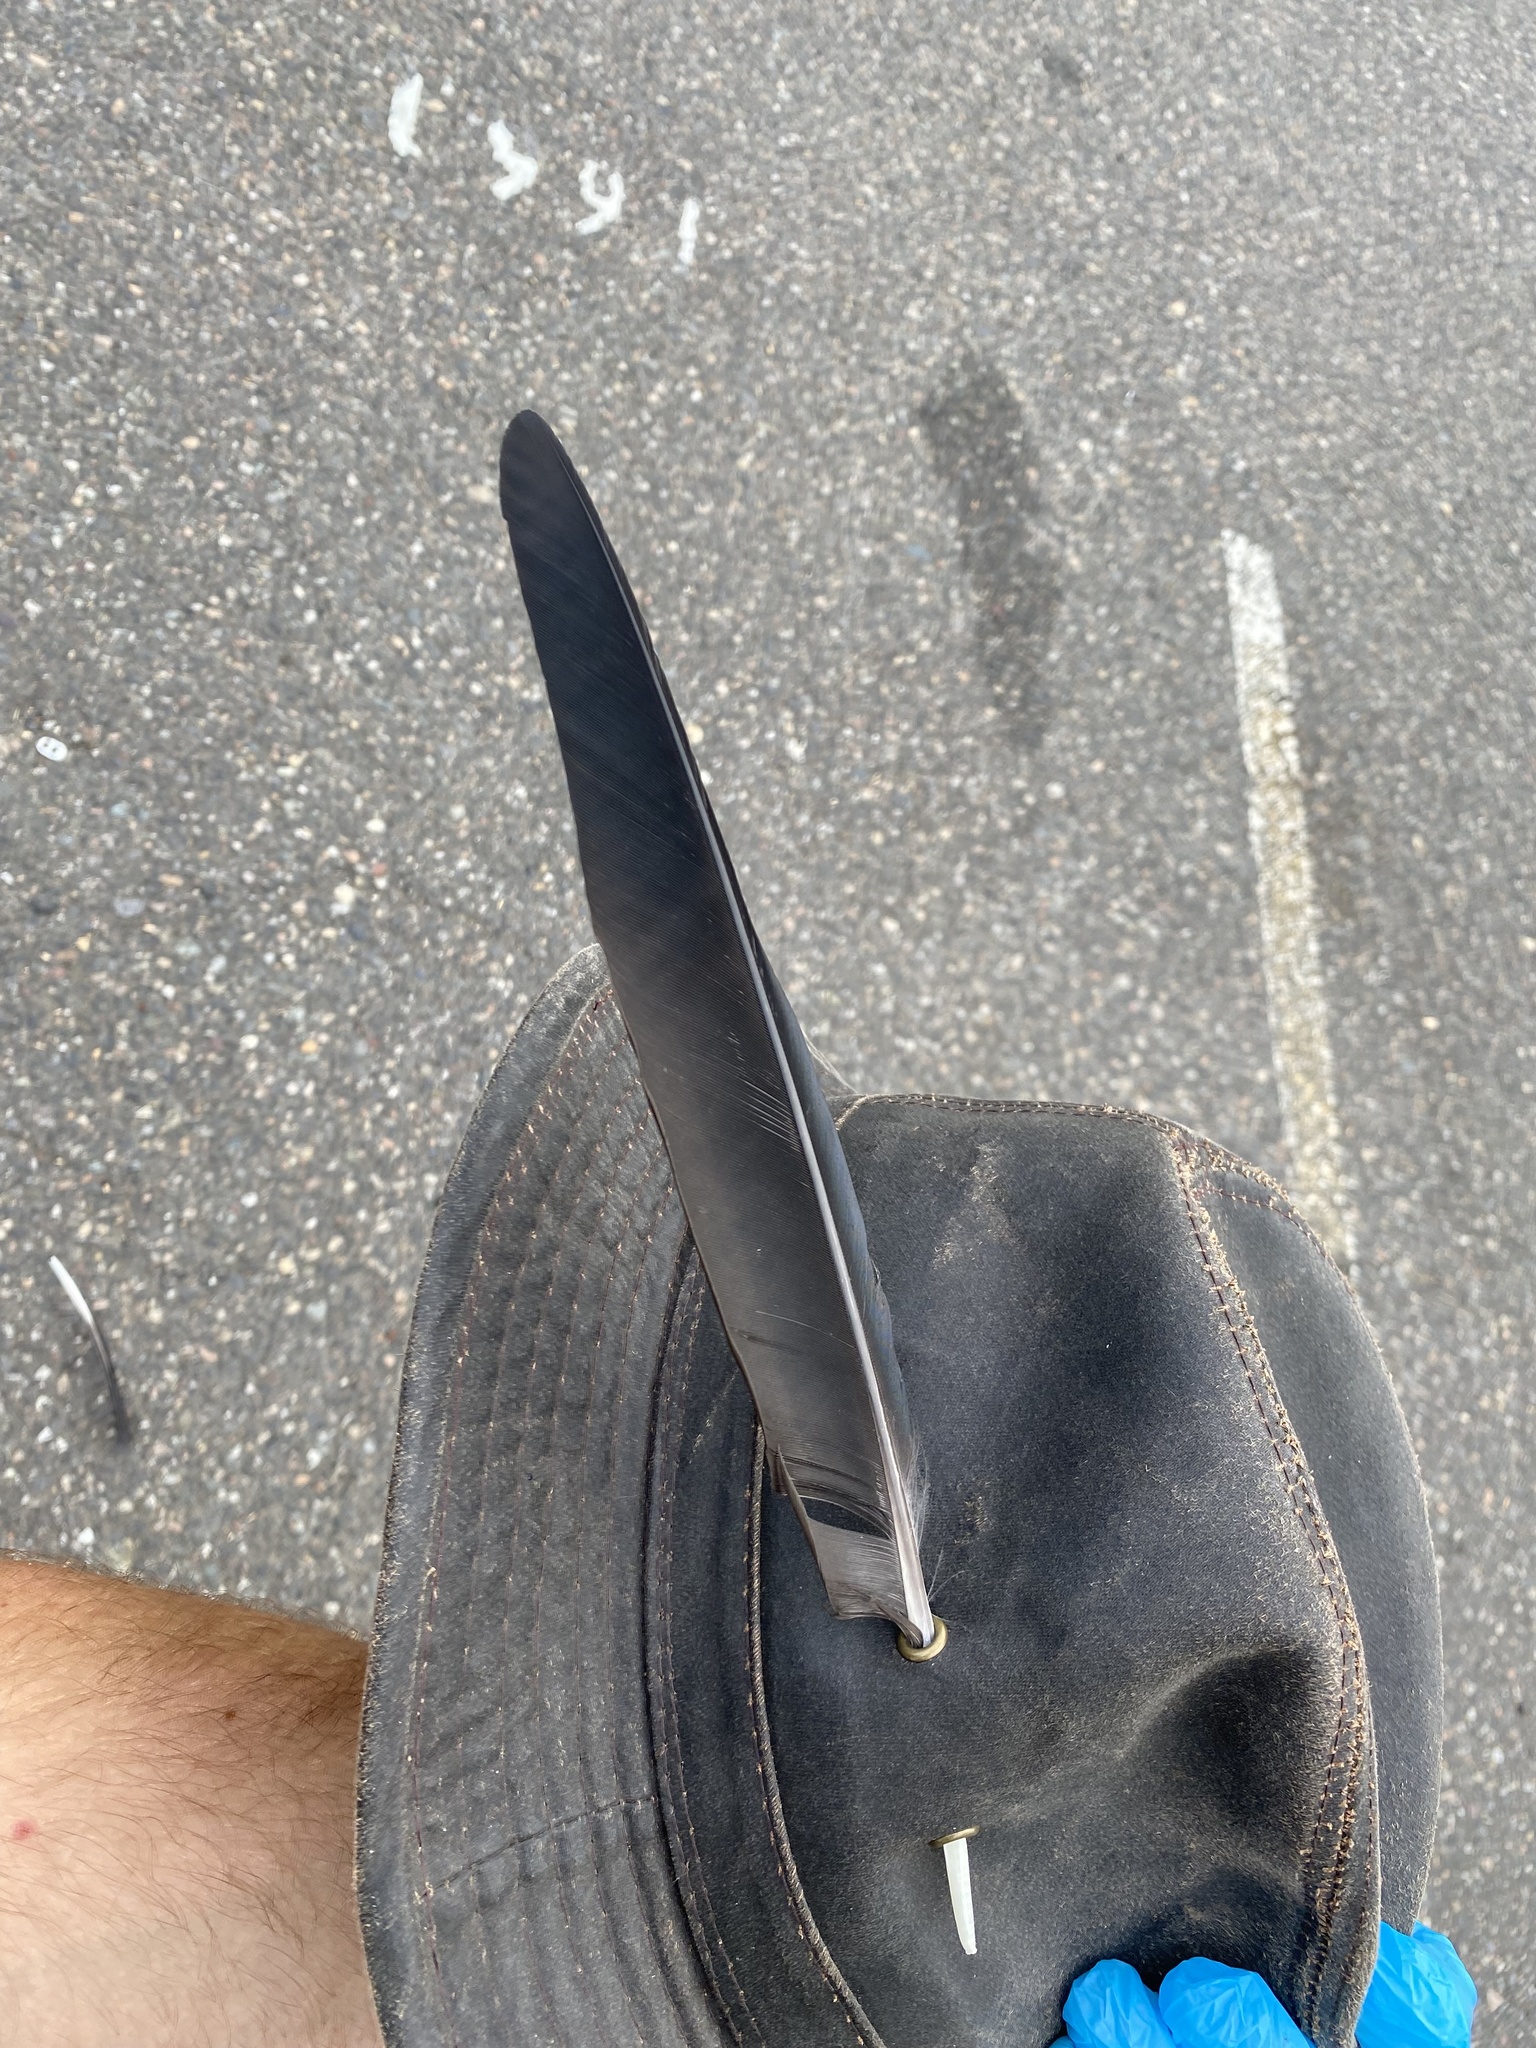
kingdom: Animalia
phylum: Chordata
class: Aves
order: Passeriformes
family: Corvidae
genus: Corvus
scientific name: Corvus brachyrhynchos
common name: American crow
